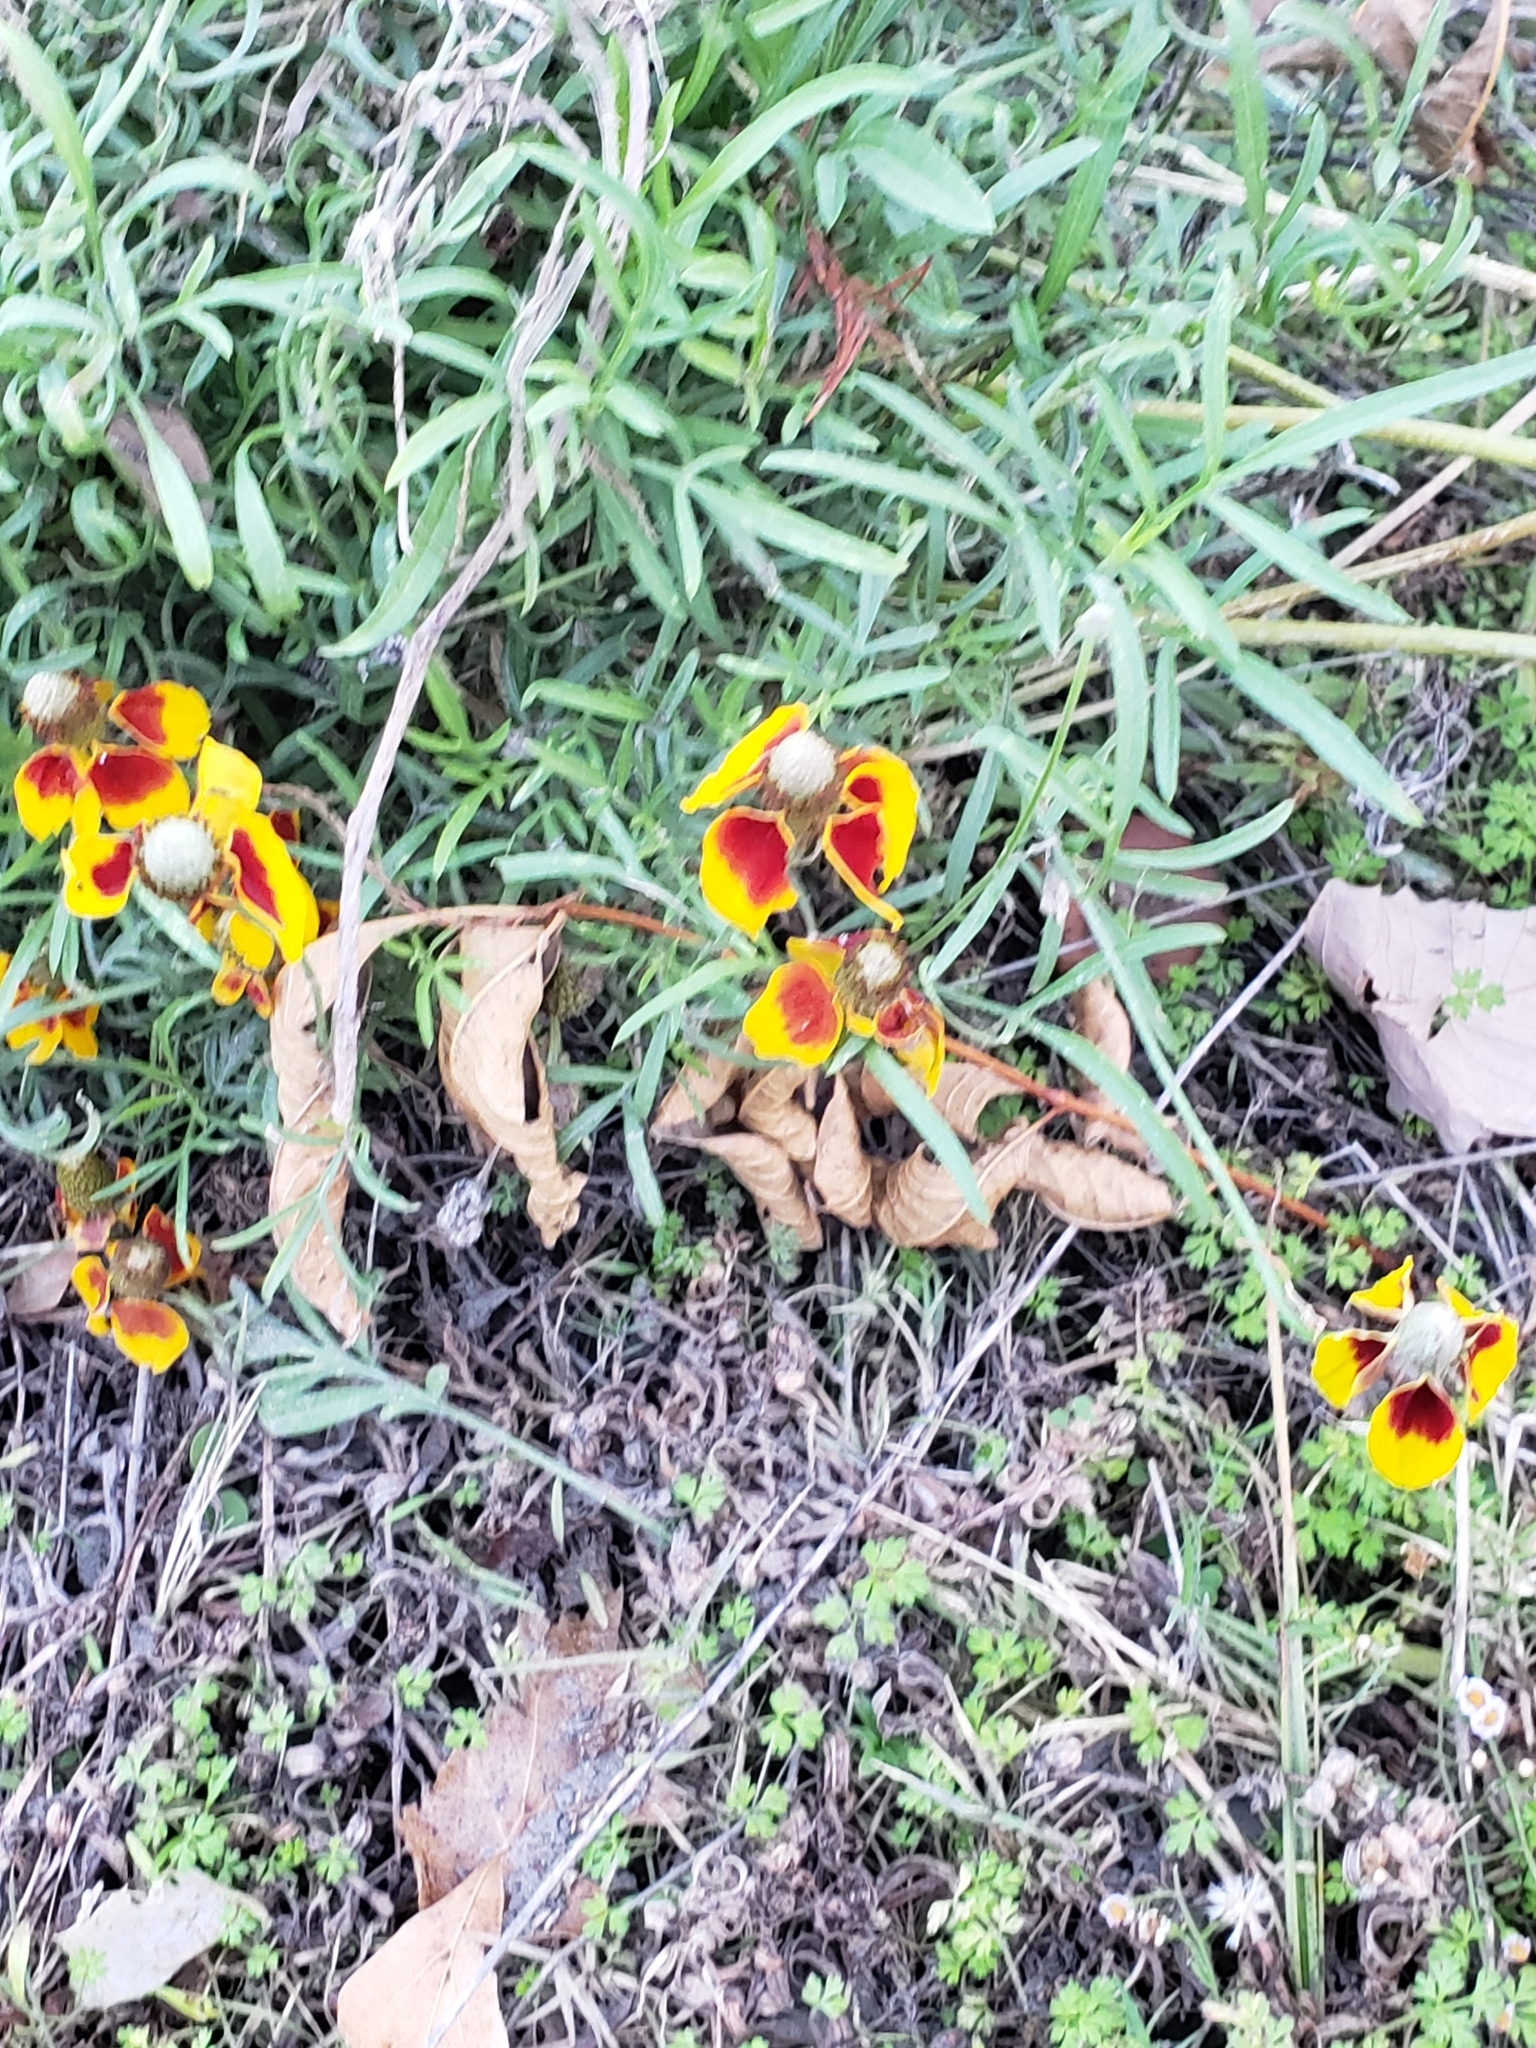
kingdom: Plantae
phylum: Tracheophyta
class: Magnoliopsida
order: Asterales
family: Asteraceae
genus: Ratibida
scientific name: Ratibida columnifera
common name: Prairie coneflower
